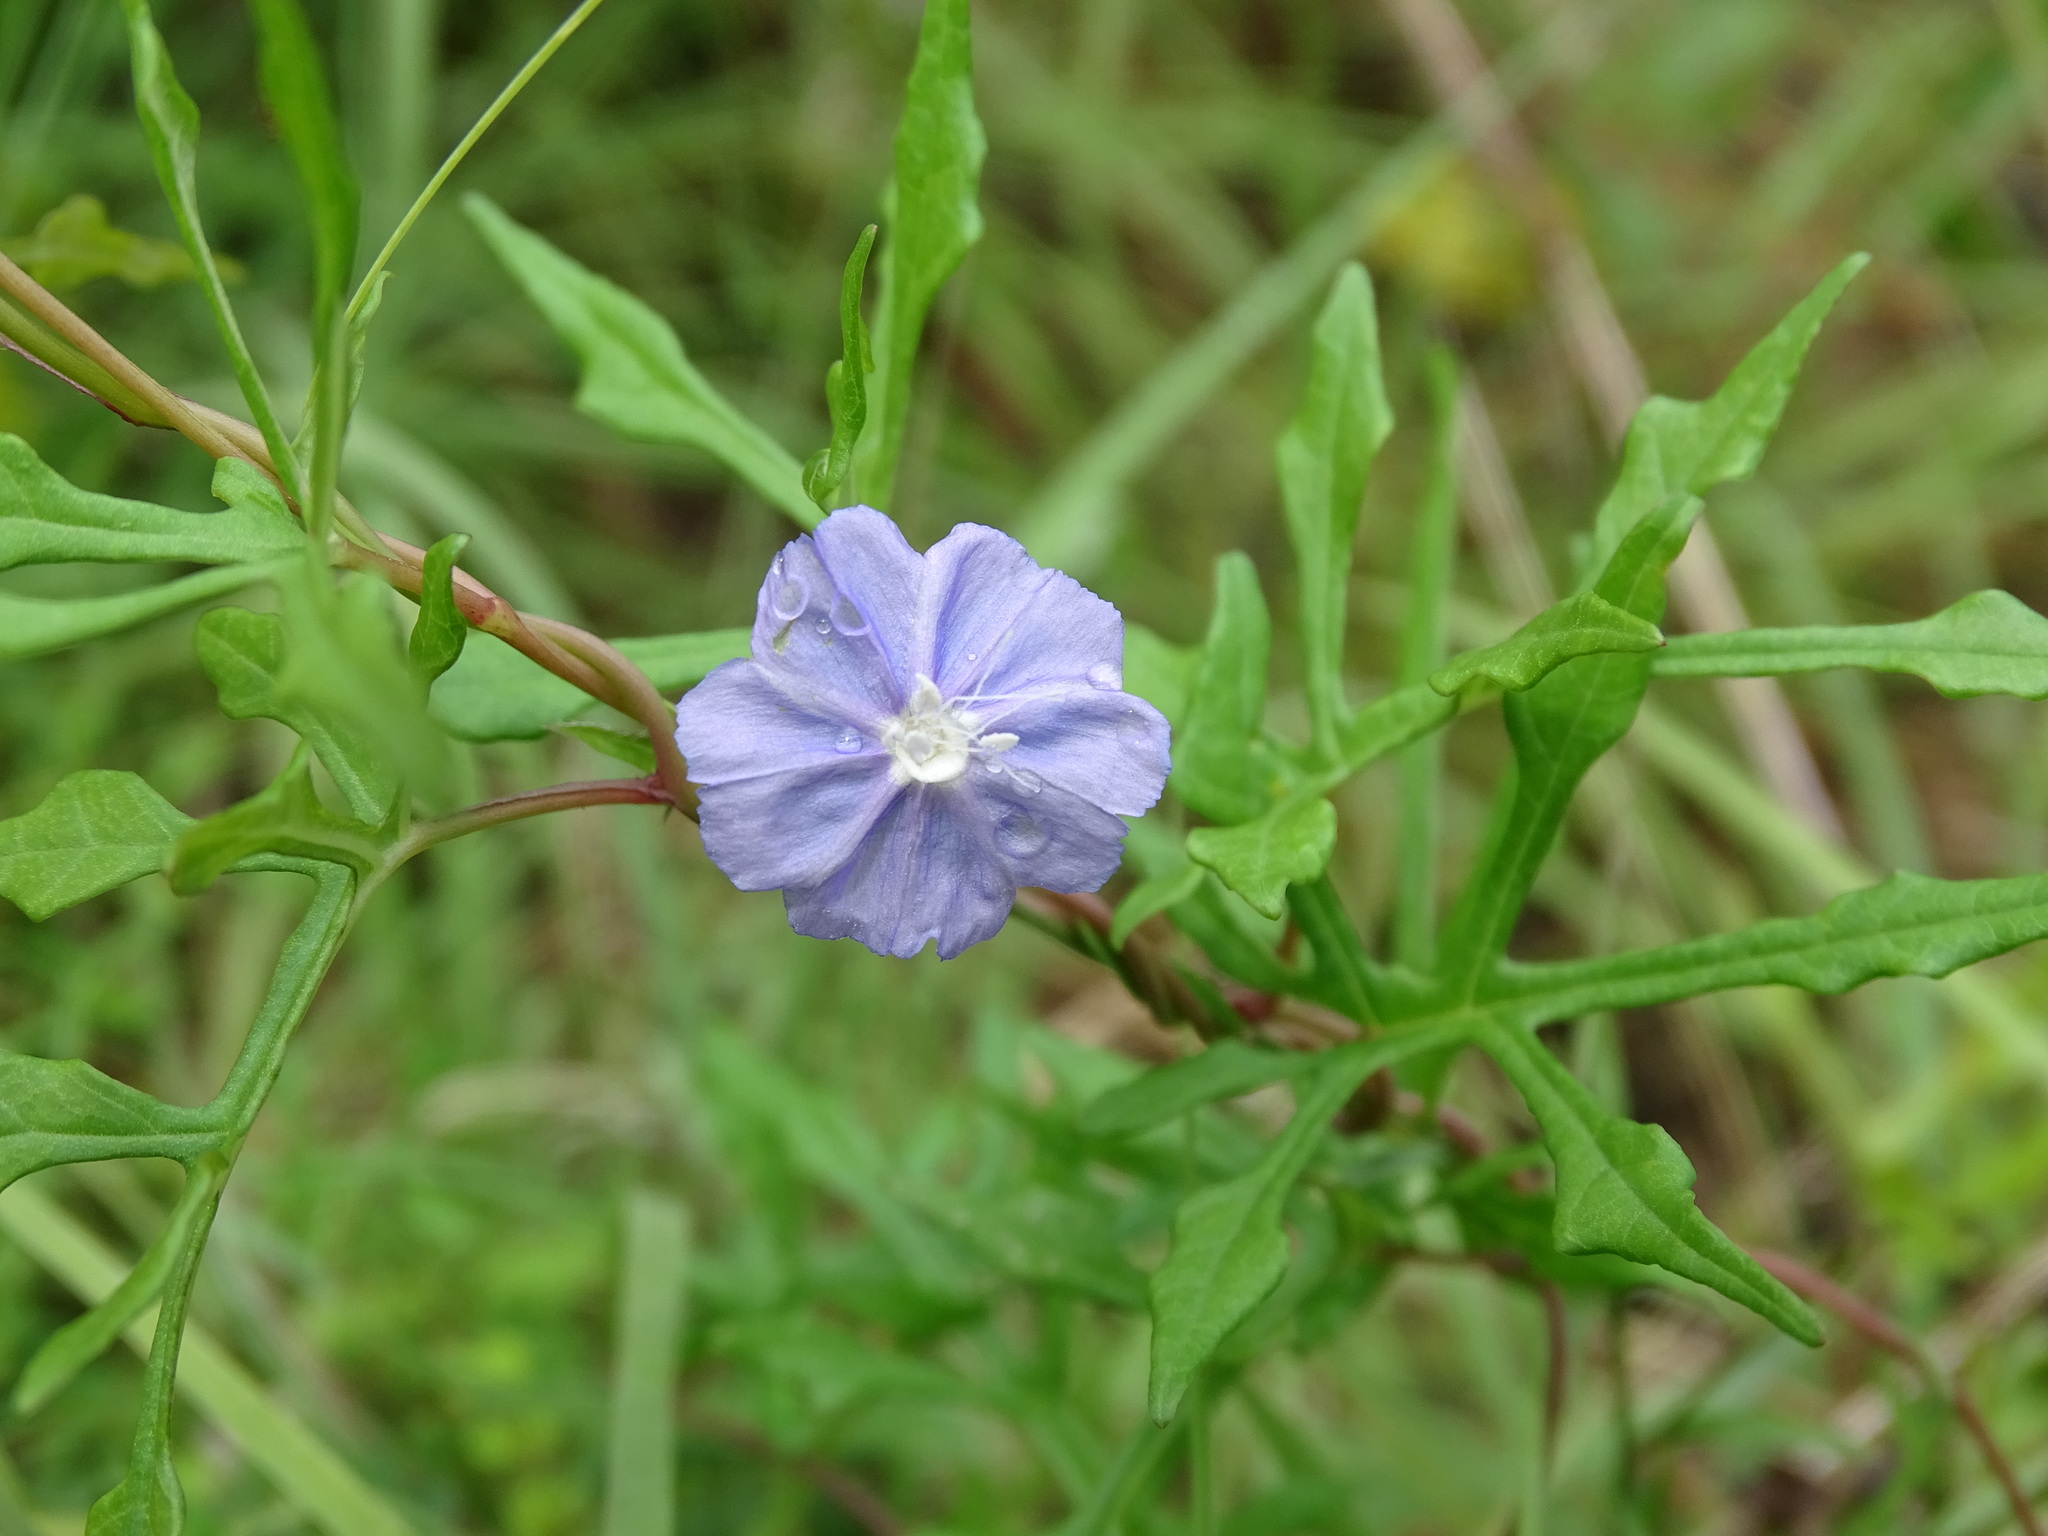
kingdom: Plantae
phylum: Tracheophyta
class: Magnoliopsida
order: Solanales
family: Convolvulaceae
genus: Evolvulus
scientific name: Evolvulus alsinoides
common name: Slender dwarf morning-glory
